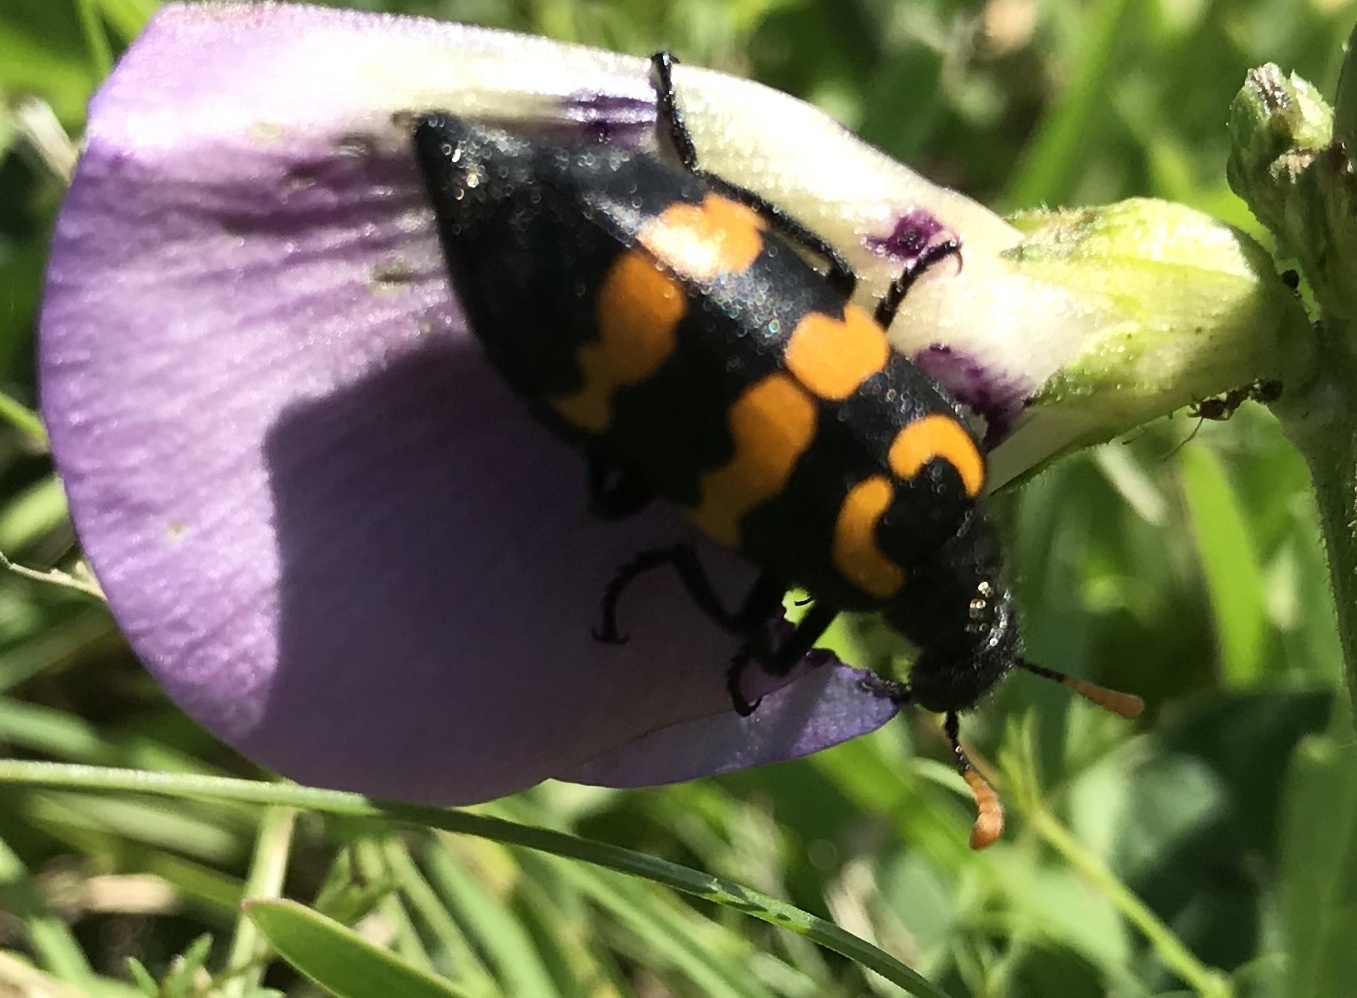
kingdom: Animalia
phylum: Arthropoda
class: Insecta
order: Coleoptera
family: Meloidae
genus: Meloe
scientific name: Meloe lunata
